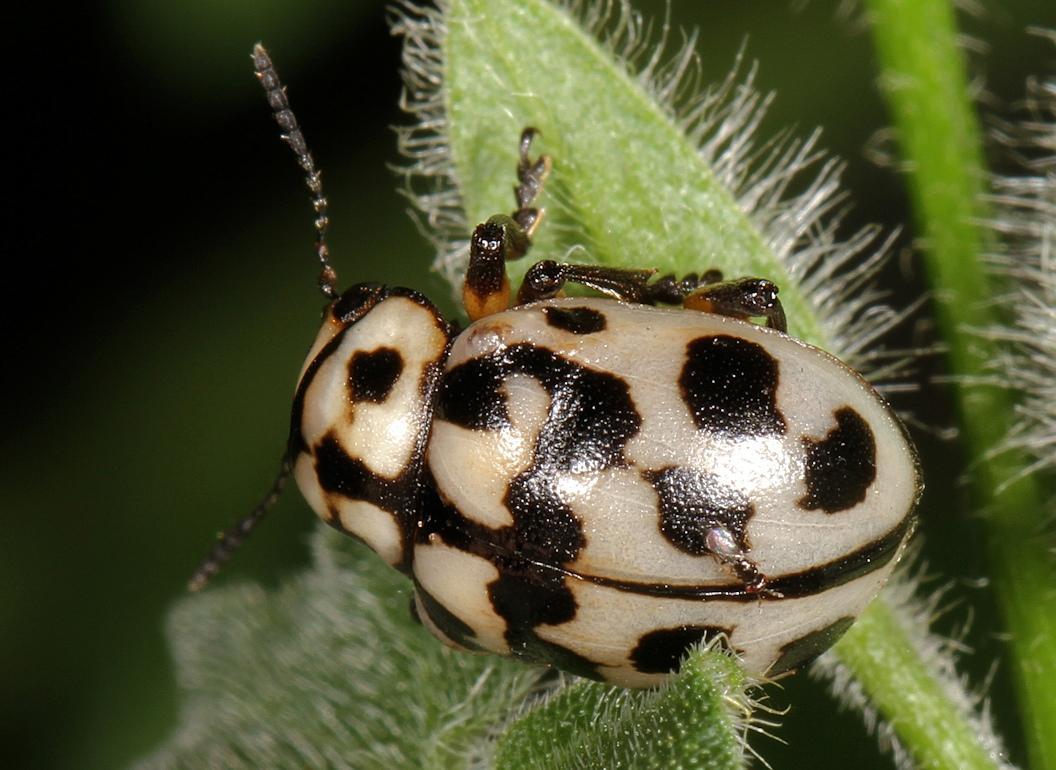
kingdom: Animalia
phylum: Arthropoda
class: Insecta
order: Coleoptera
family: Chrysomelidae
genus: Euryope
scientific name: Euryope
